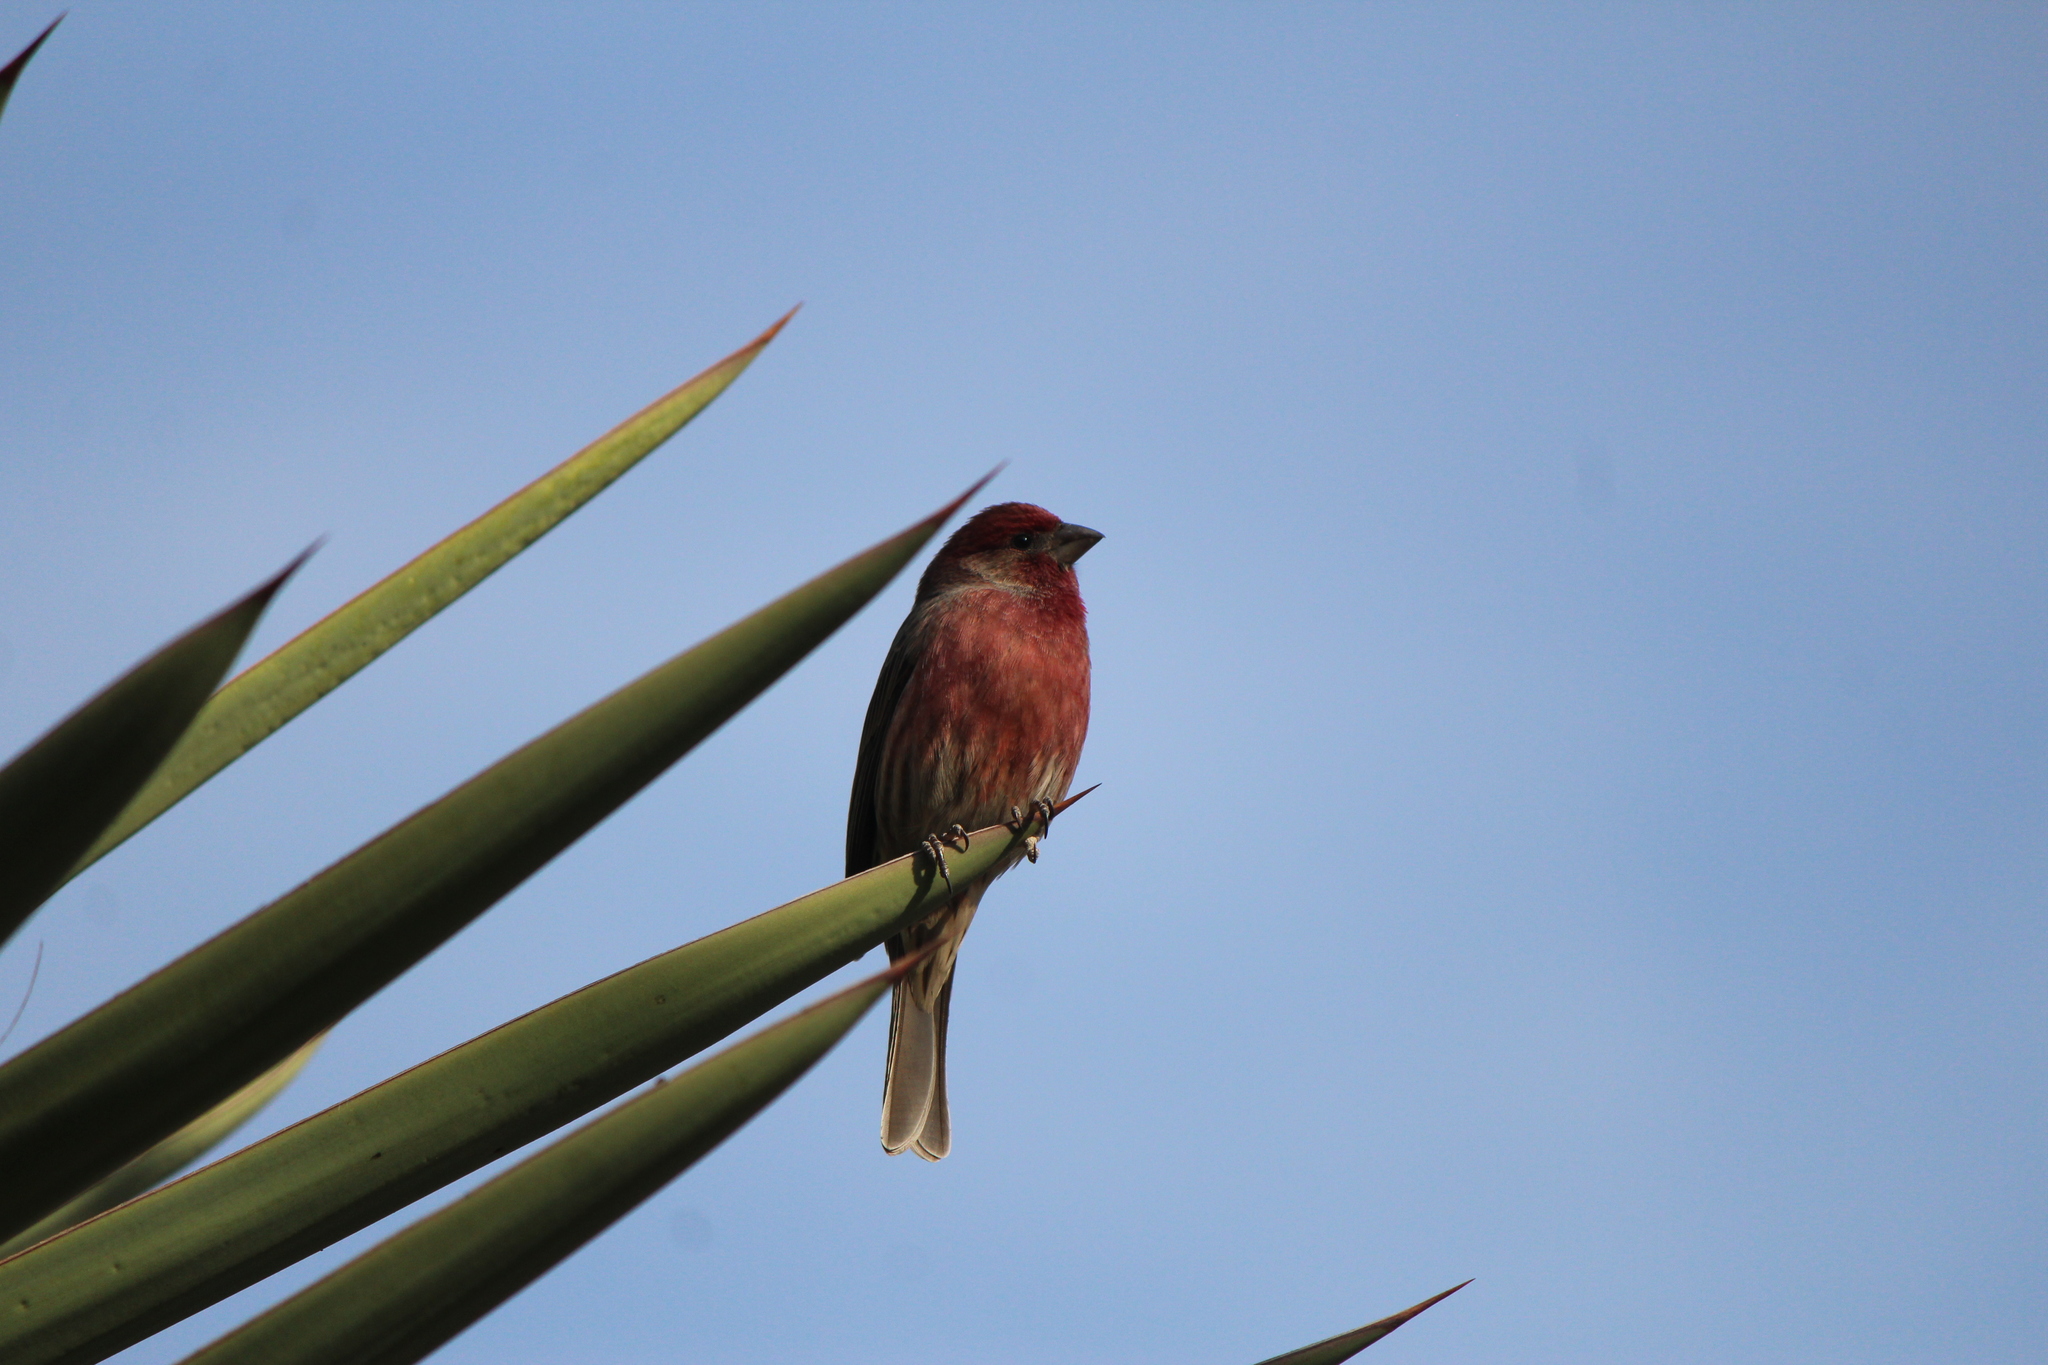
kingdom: Animalia
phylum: Chordata
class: Aves
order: Passeriformes
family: Fringillidae
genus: Haemorhous
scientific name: Haemorhous mexicanus
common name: House finch
